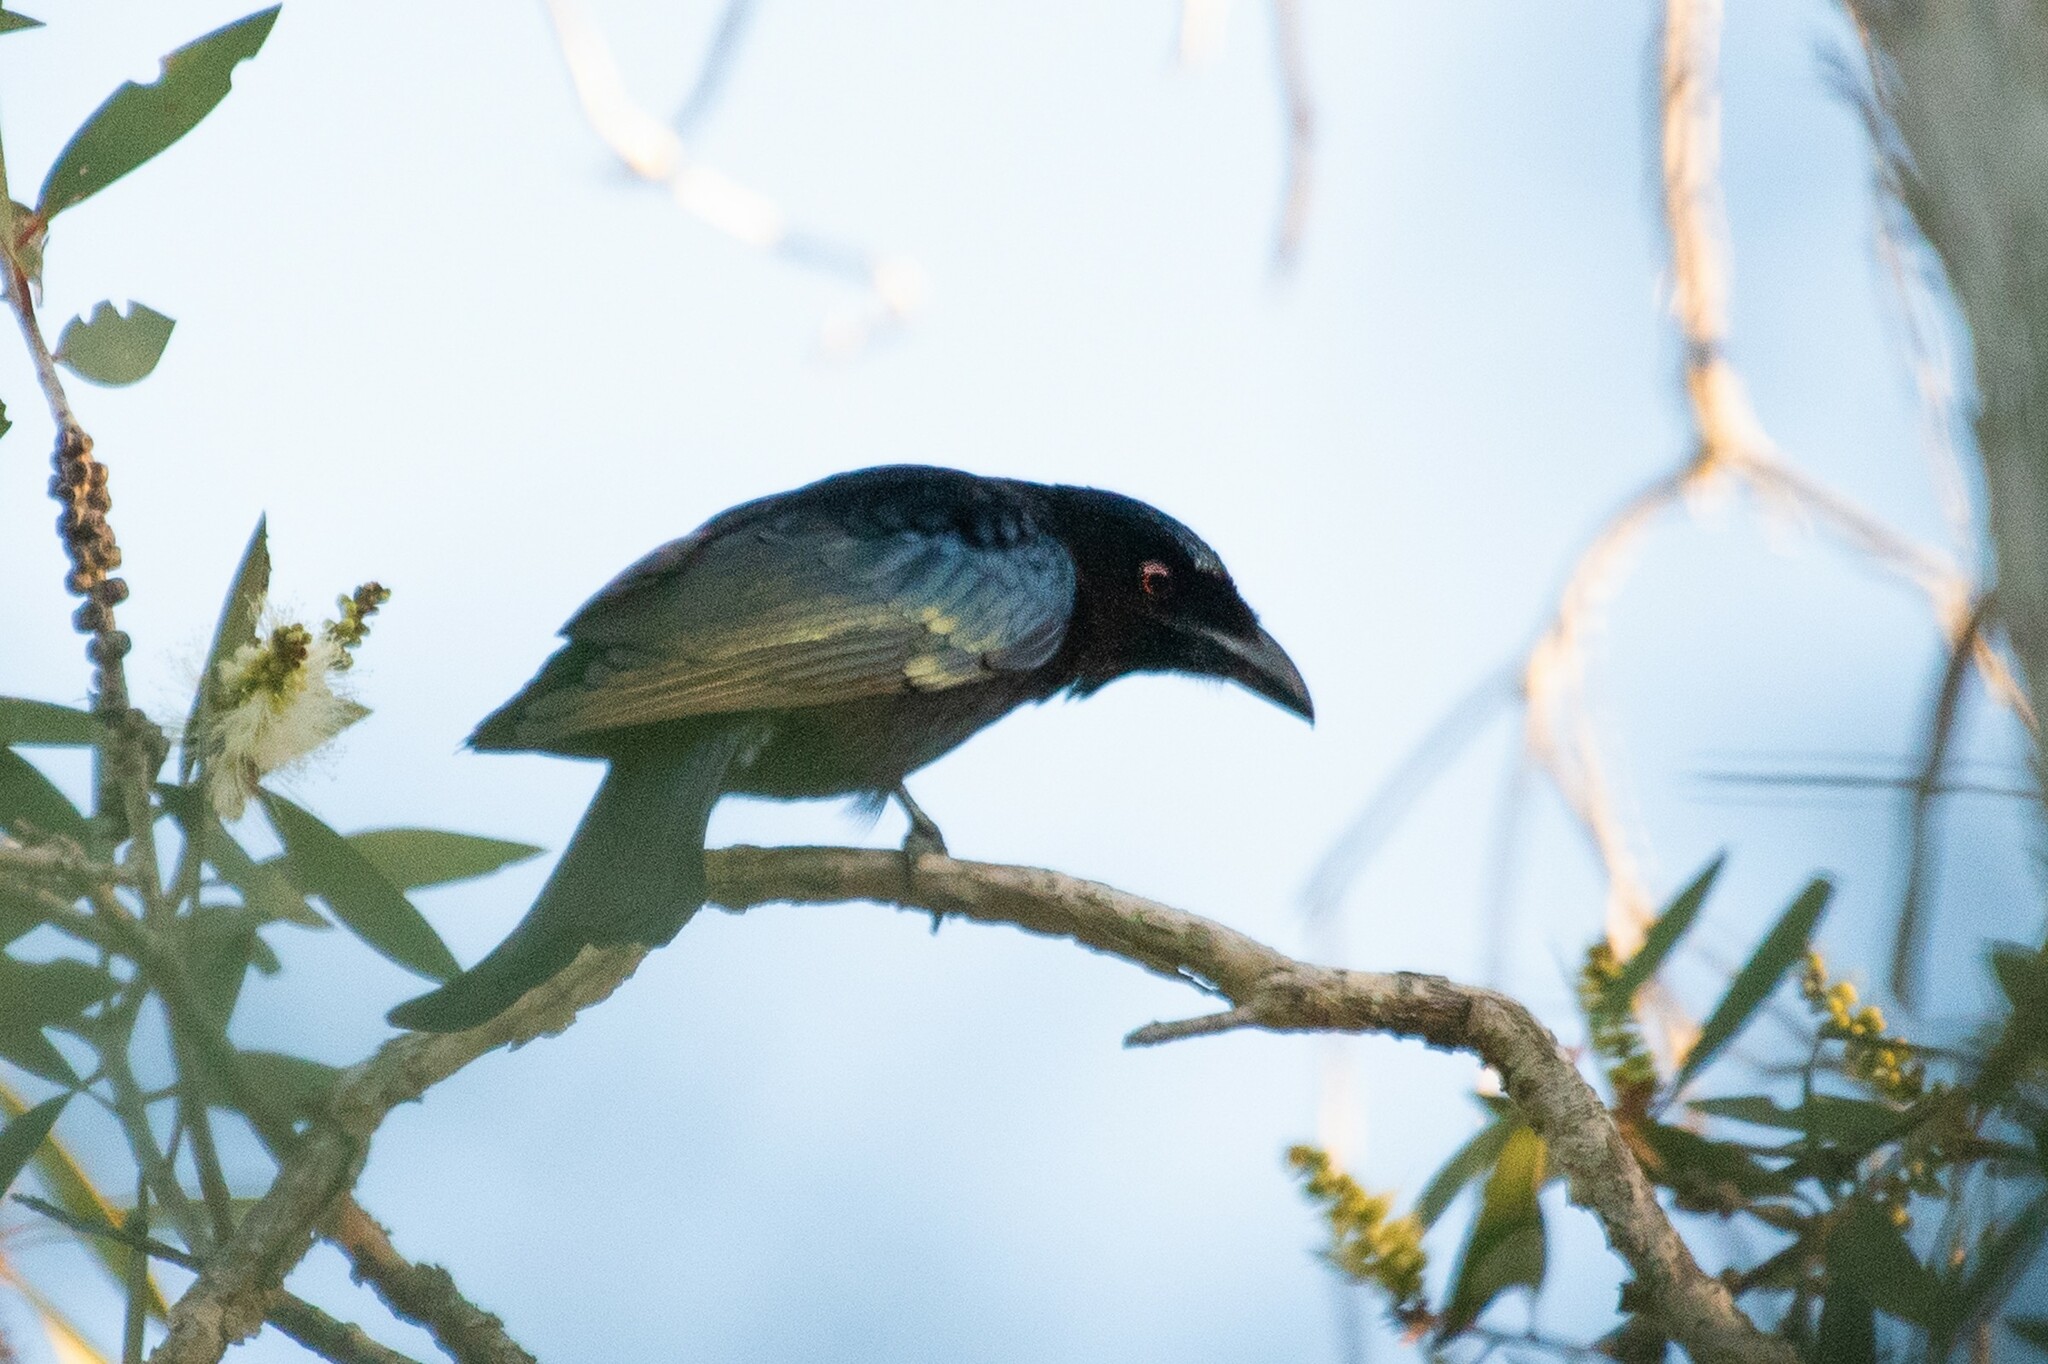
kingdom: Animalia
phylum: Chordata
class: Aves
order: Passeriformes
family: Dicruridae
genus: Dicrurus
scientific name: Dicrurus bracteatus
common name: Spangled drongo
